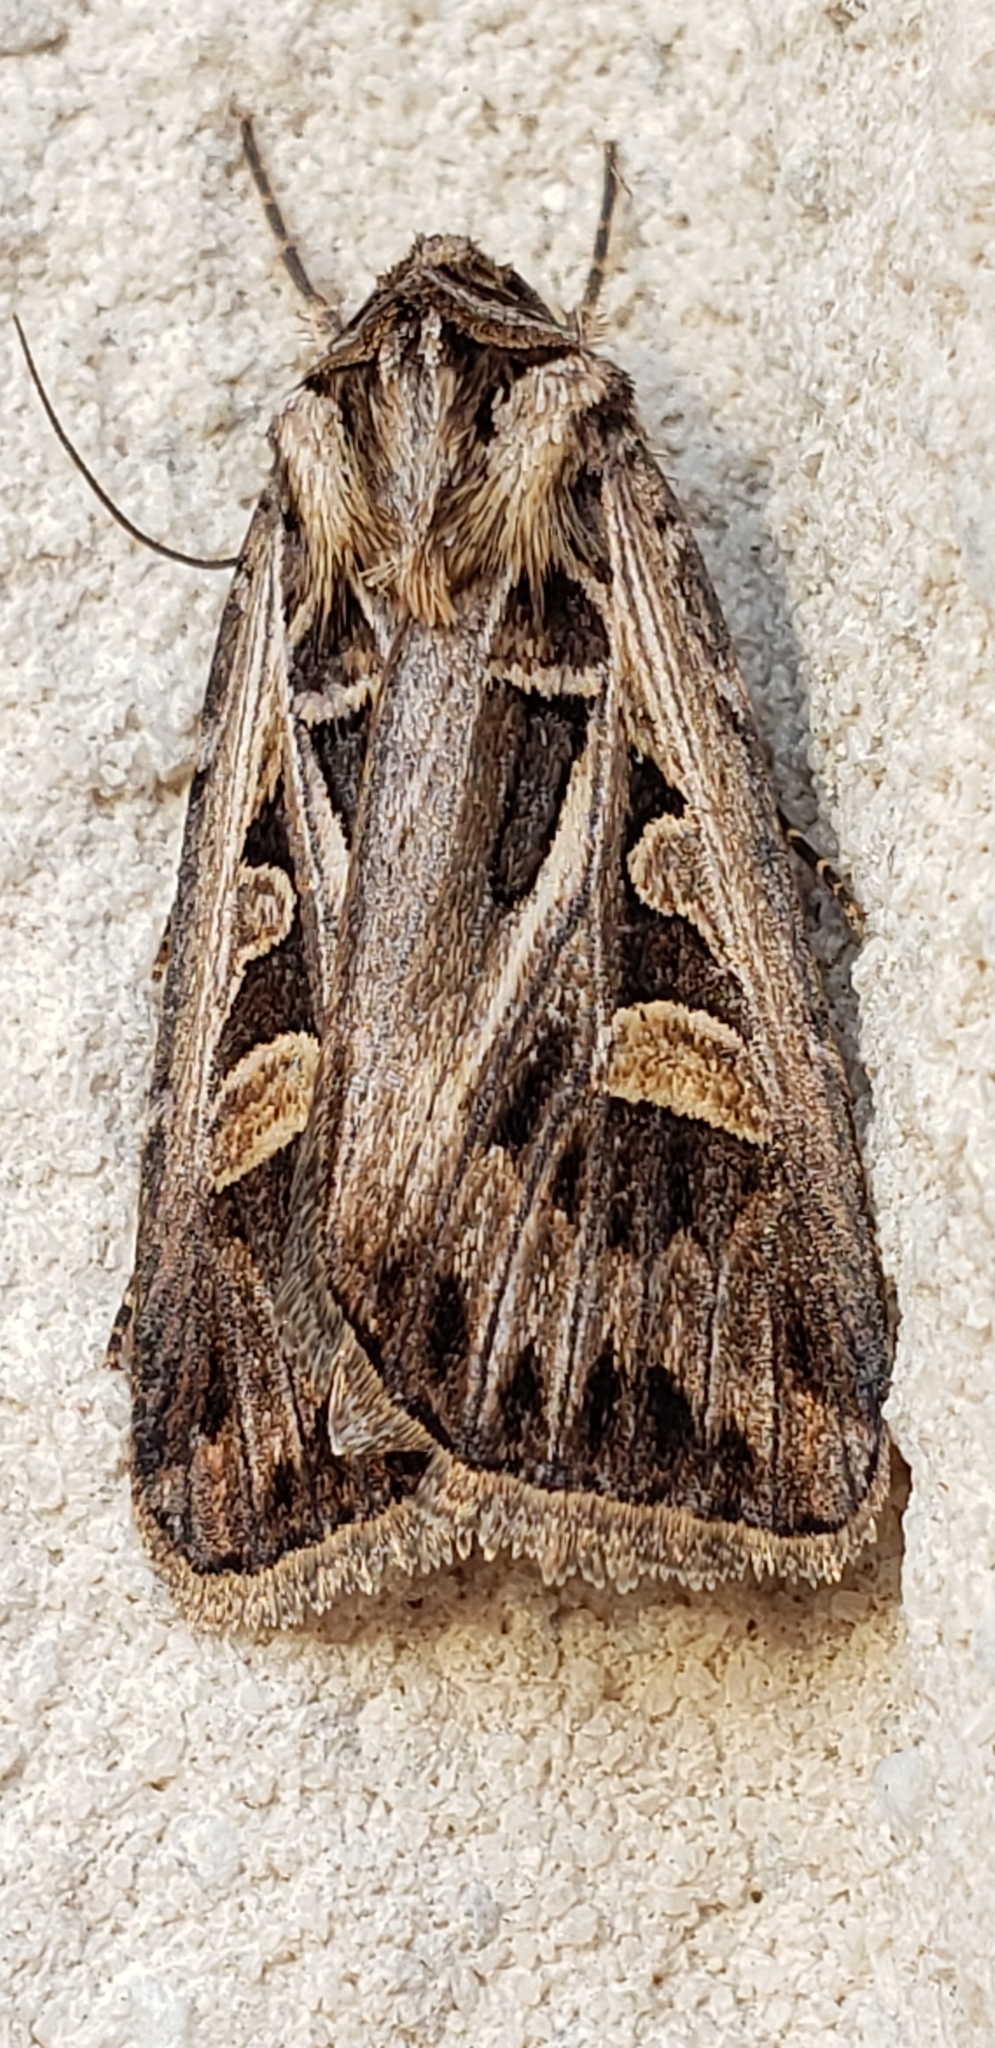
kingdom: Animalia
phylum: Arthropoda
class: Insecta
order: Lepidoptera
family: Noctuidae
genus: Feltia
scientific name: Feltia jaculifera
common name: Dingy cutworm moth
